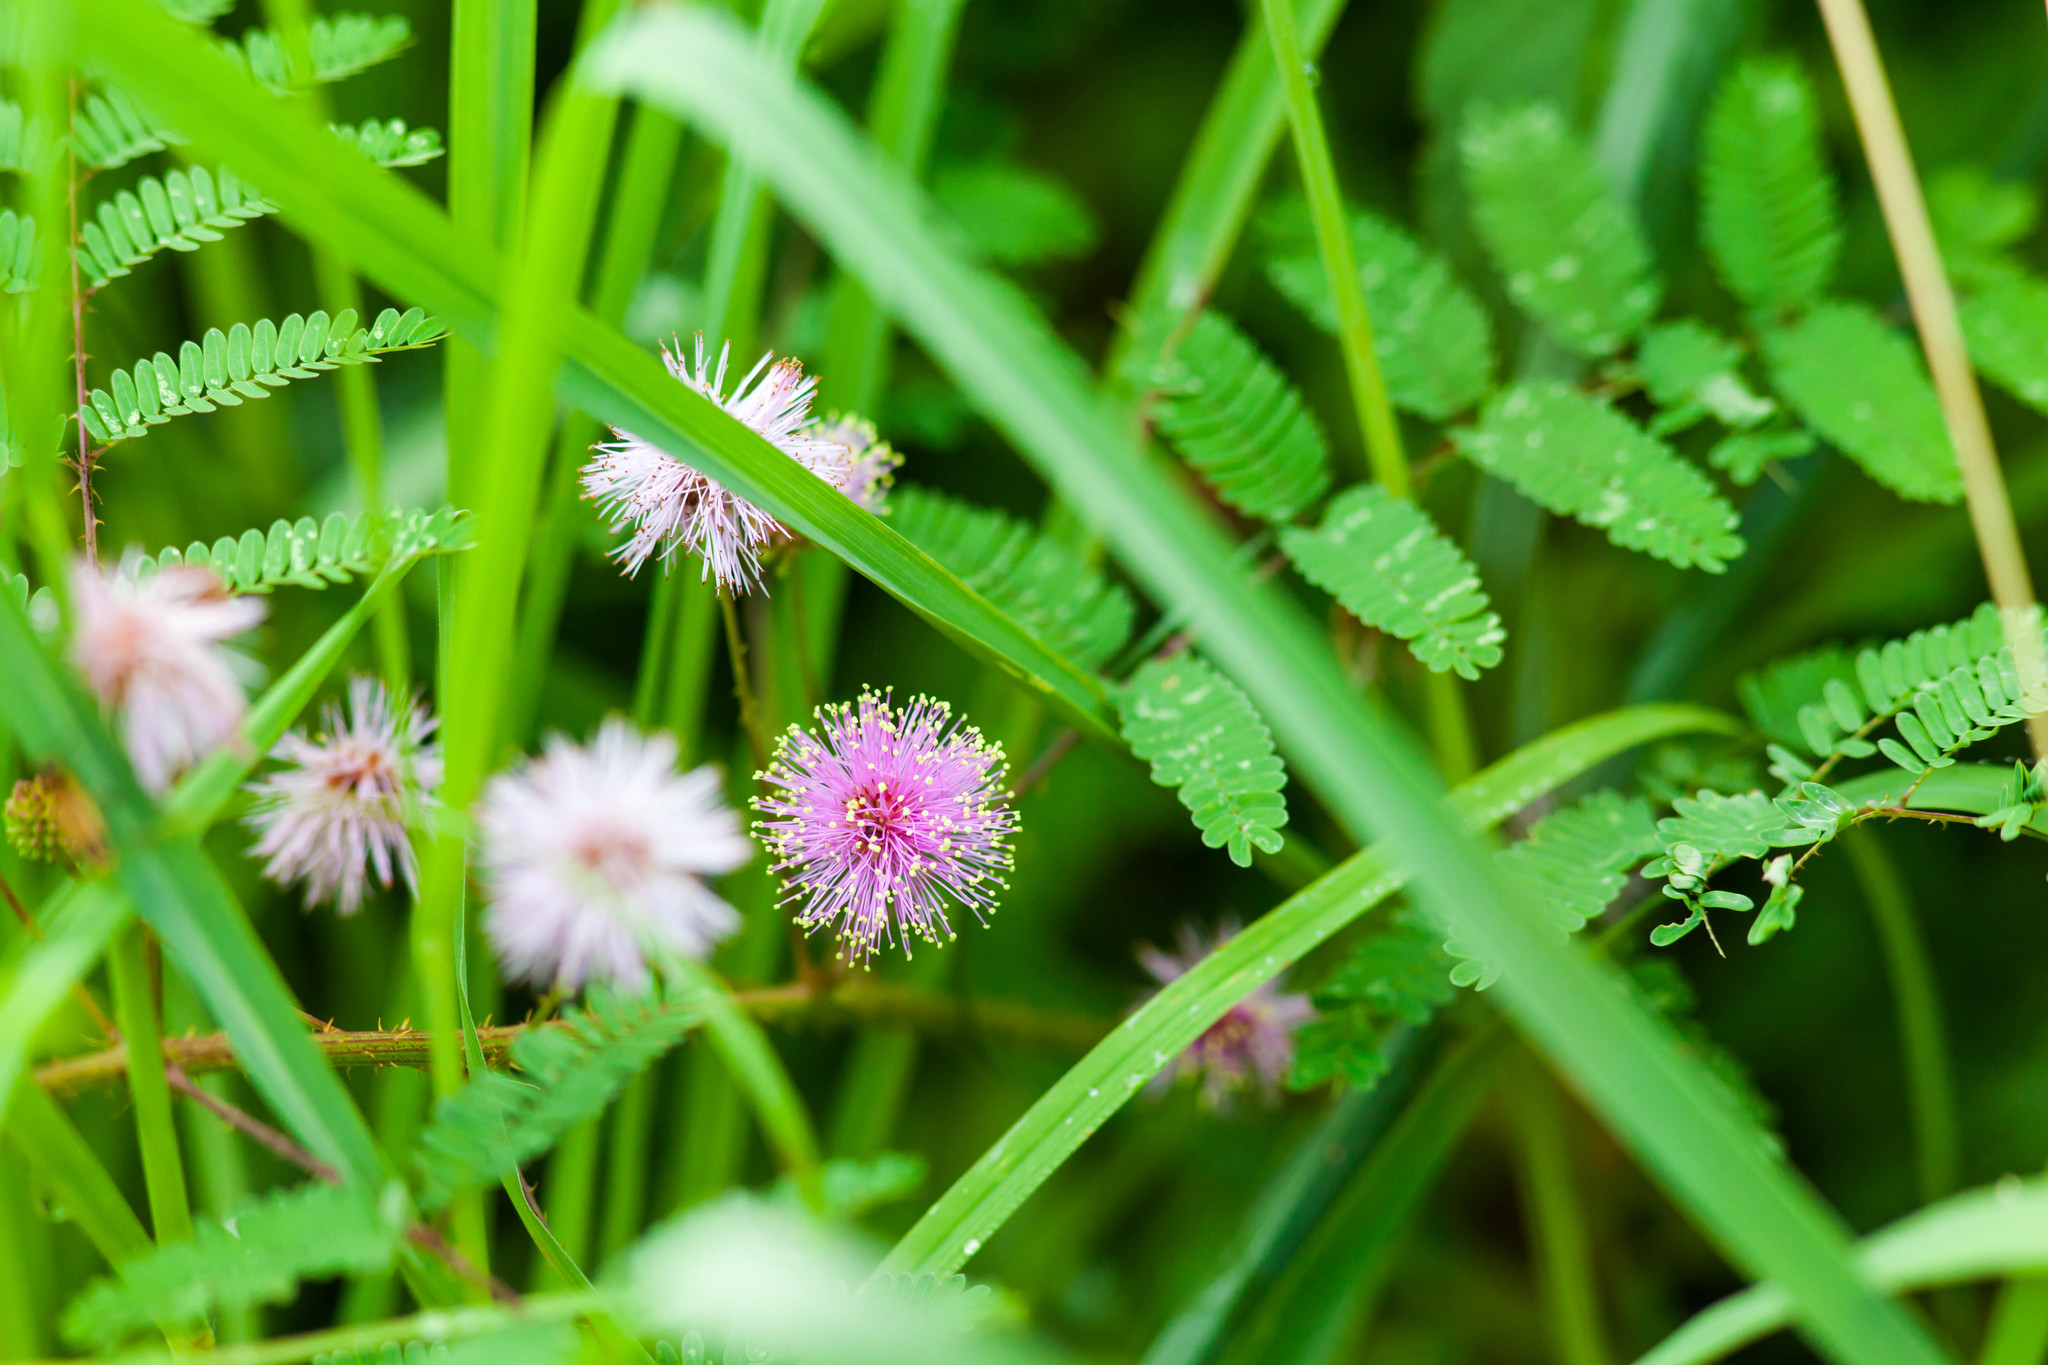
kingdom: Plantae
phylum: Tracheophyta
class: Magnoliopsida
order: Fabales
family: Fabaceae
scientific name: Fabaceae
